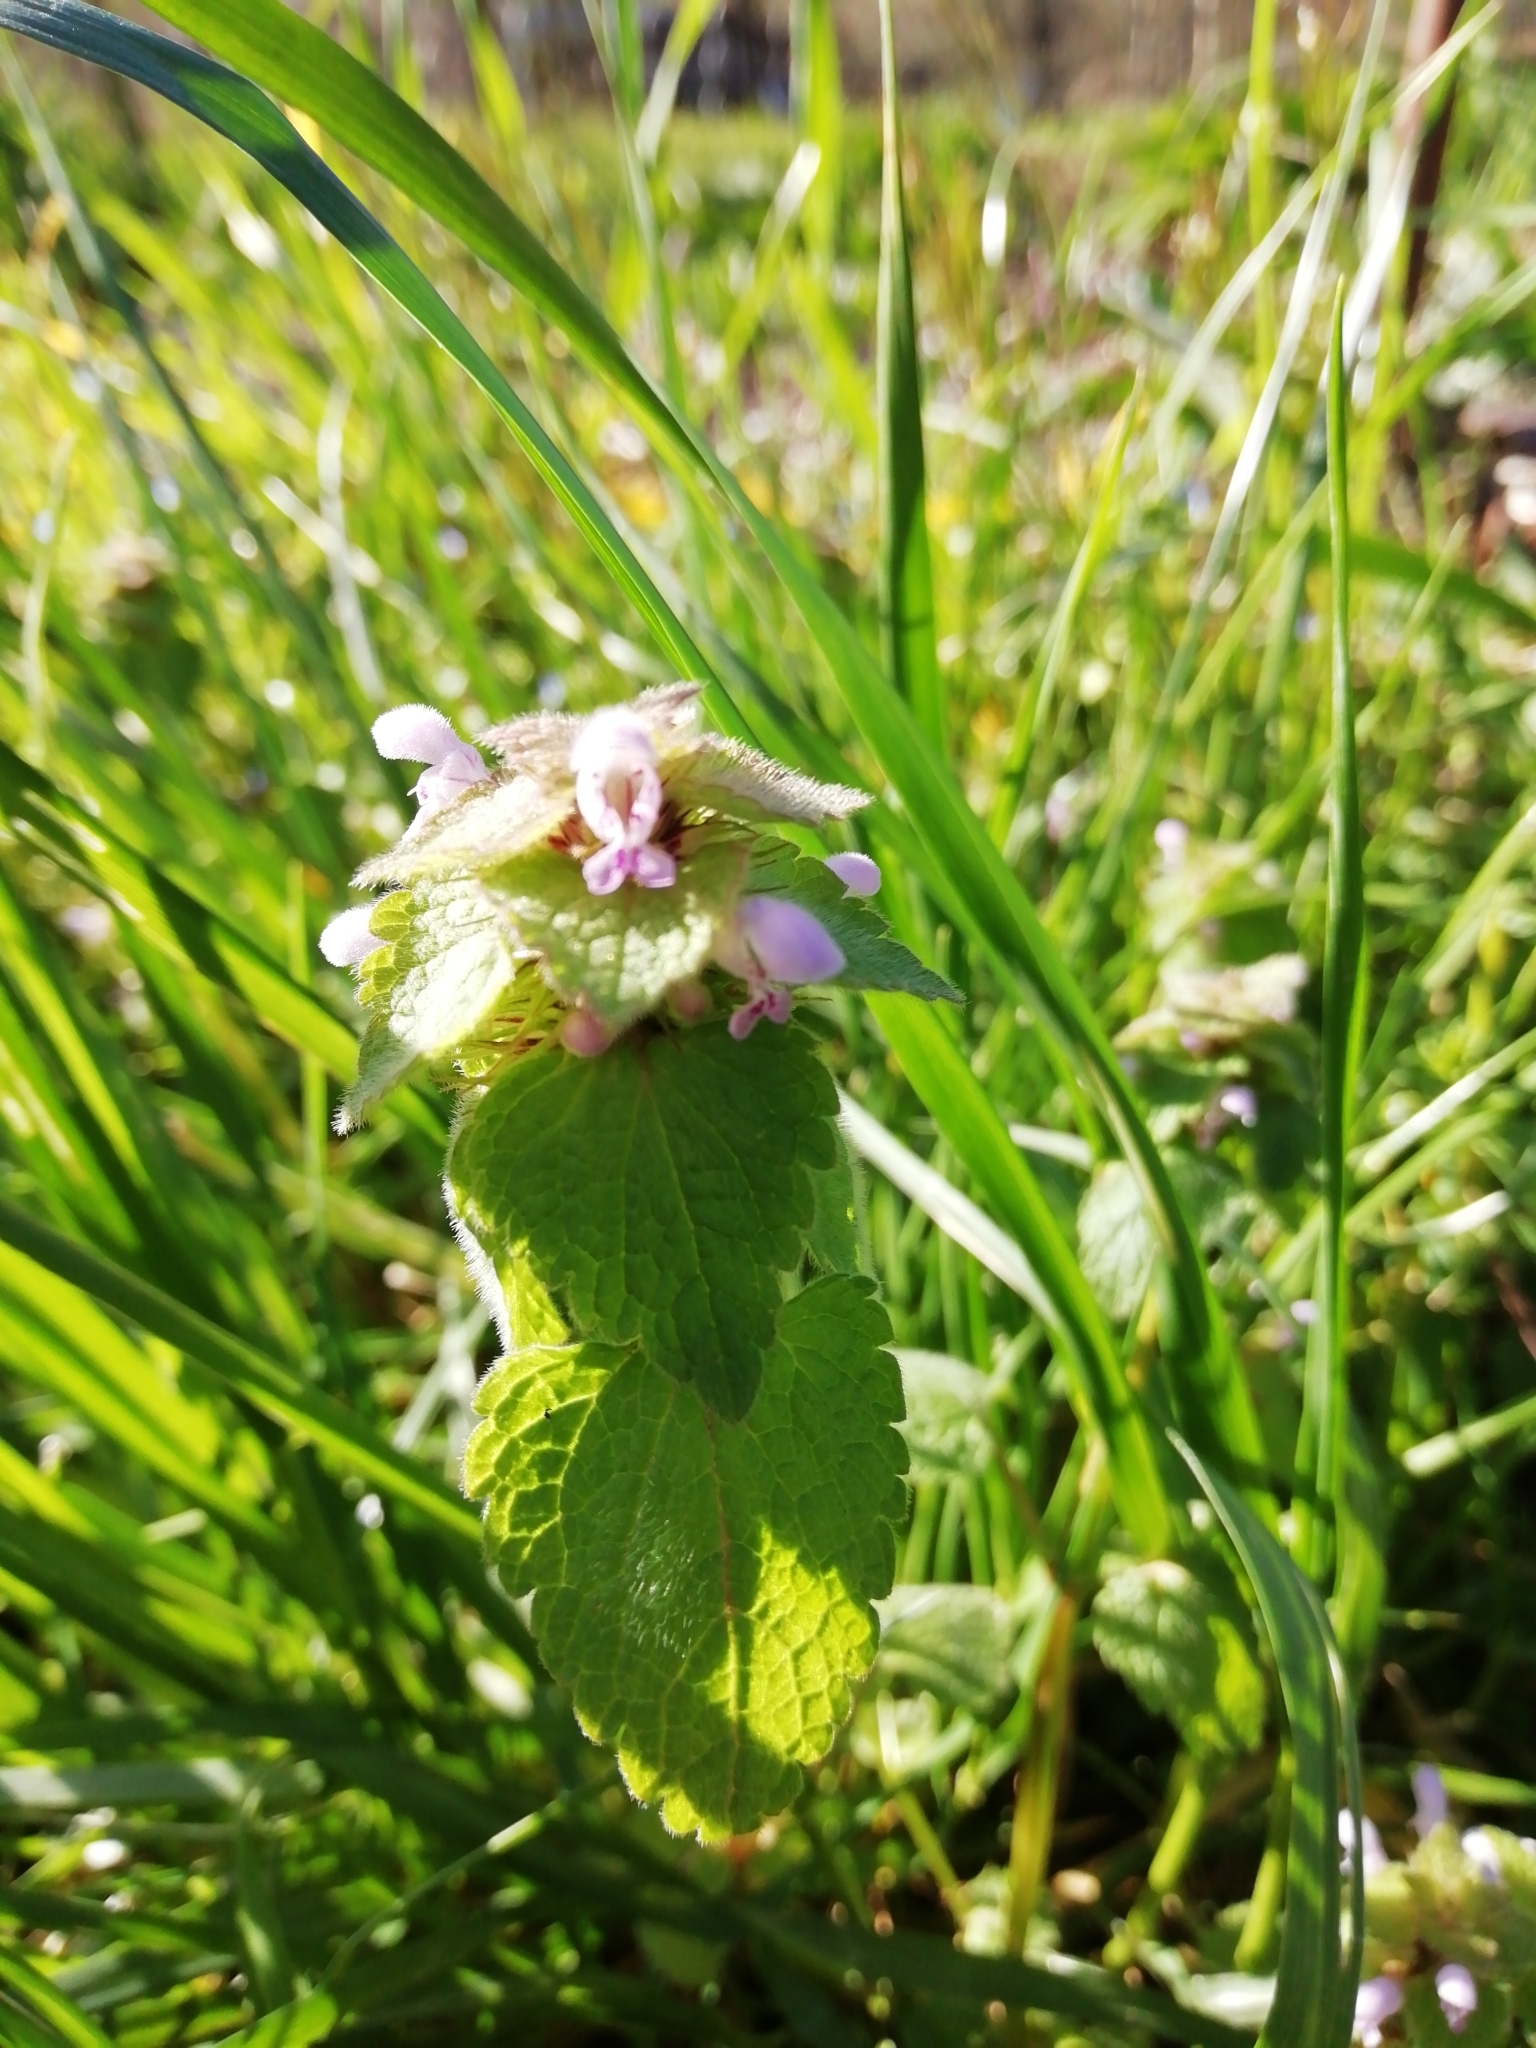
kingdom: Plantae
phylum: Tracheophyta
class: Magnoliopsida
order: Lamiales
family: Lamiaceae
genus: Lamium
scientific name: Lamium purpureum
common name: Red dead-nettle
